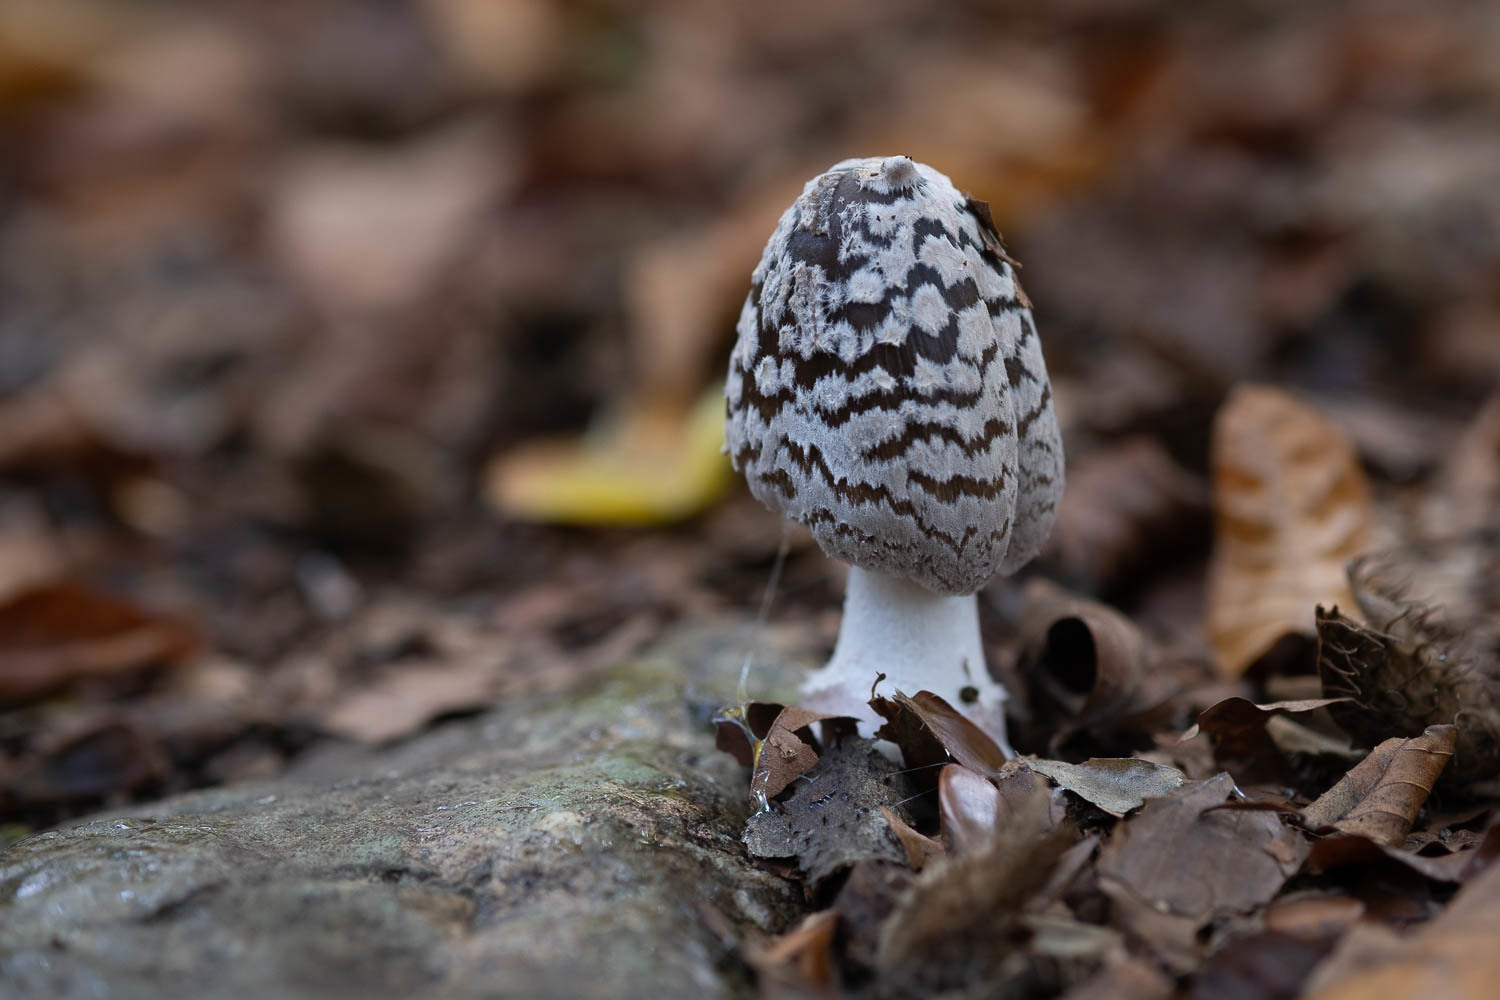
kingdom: Fungi
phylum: Basidiomycota
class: Agaricomycetes
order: Agaricales
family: Psathyrellaceae
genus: Coprinopsis
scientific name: Coprinopsis picacea
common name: Magpie inkcap
